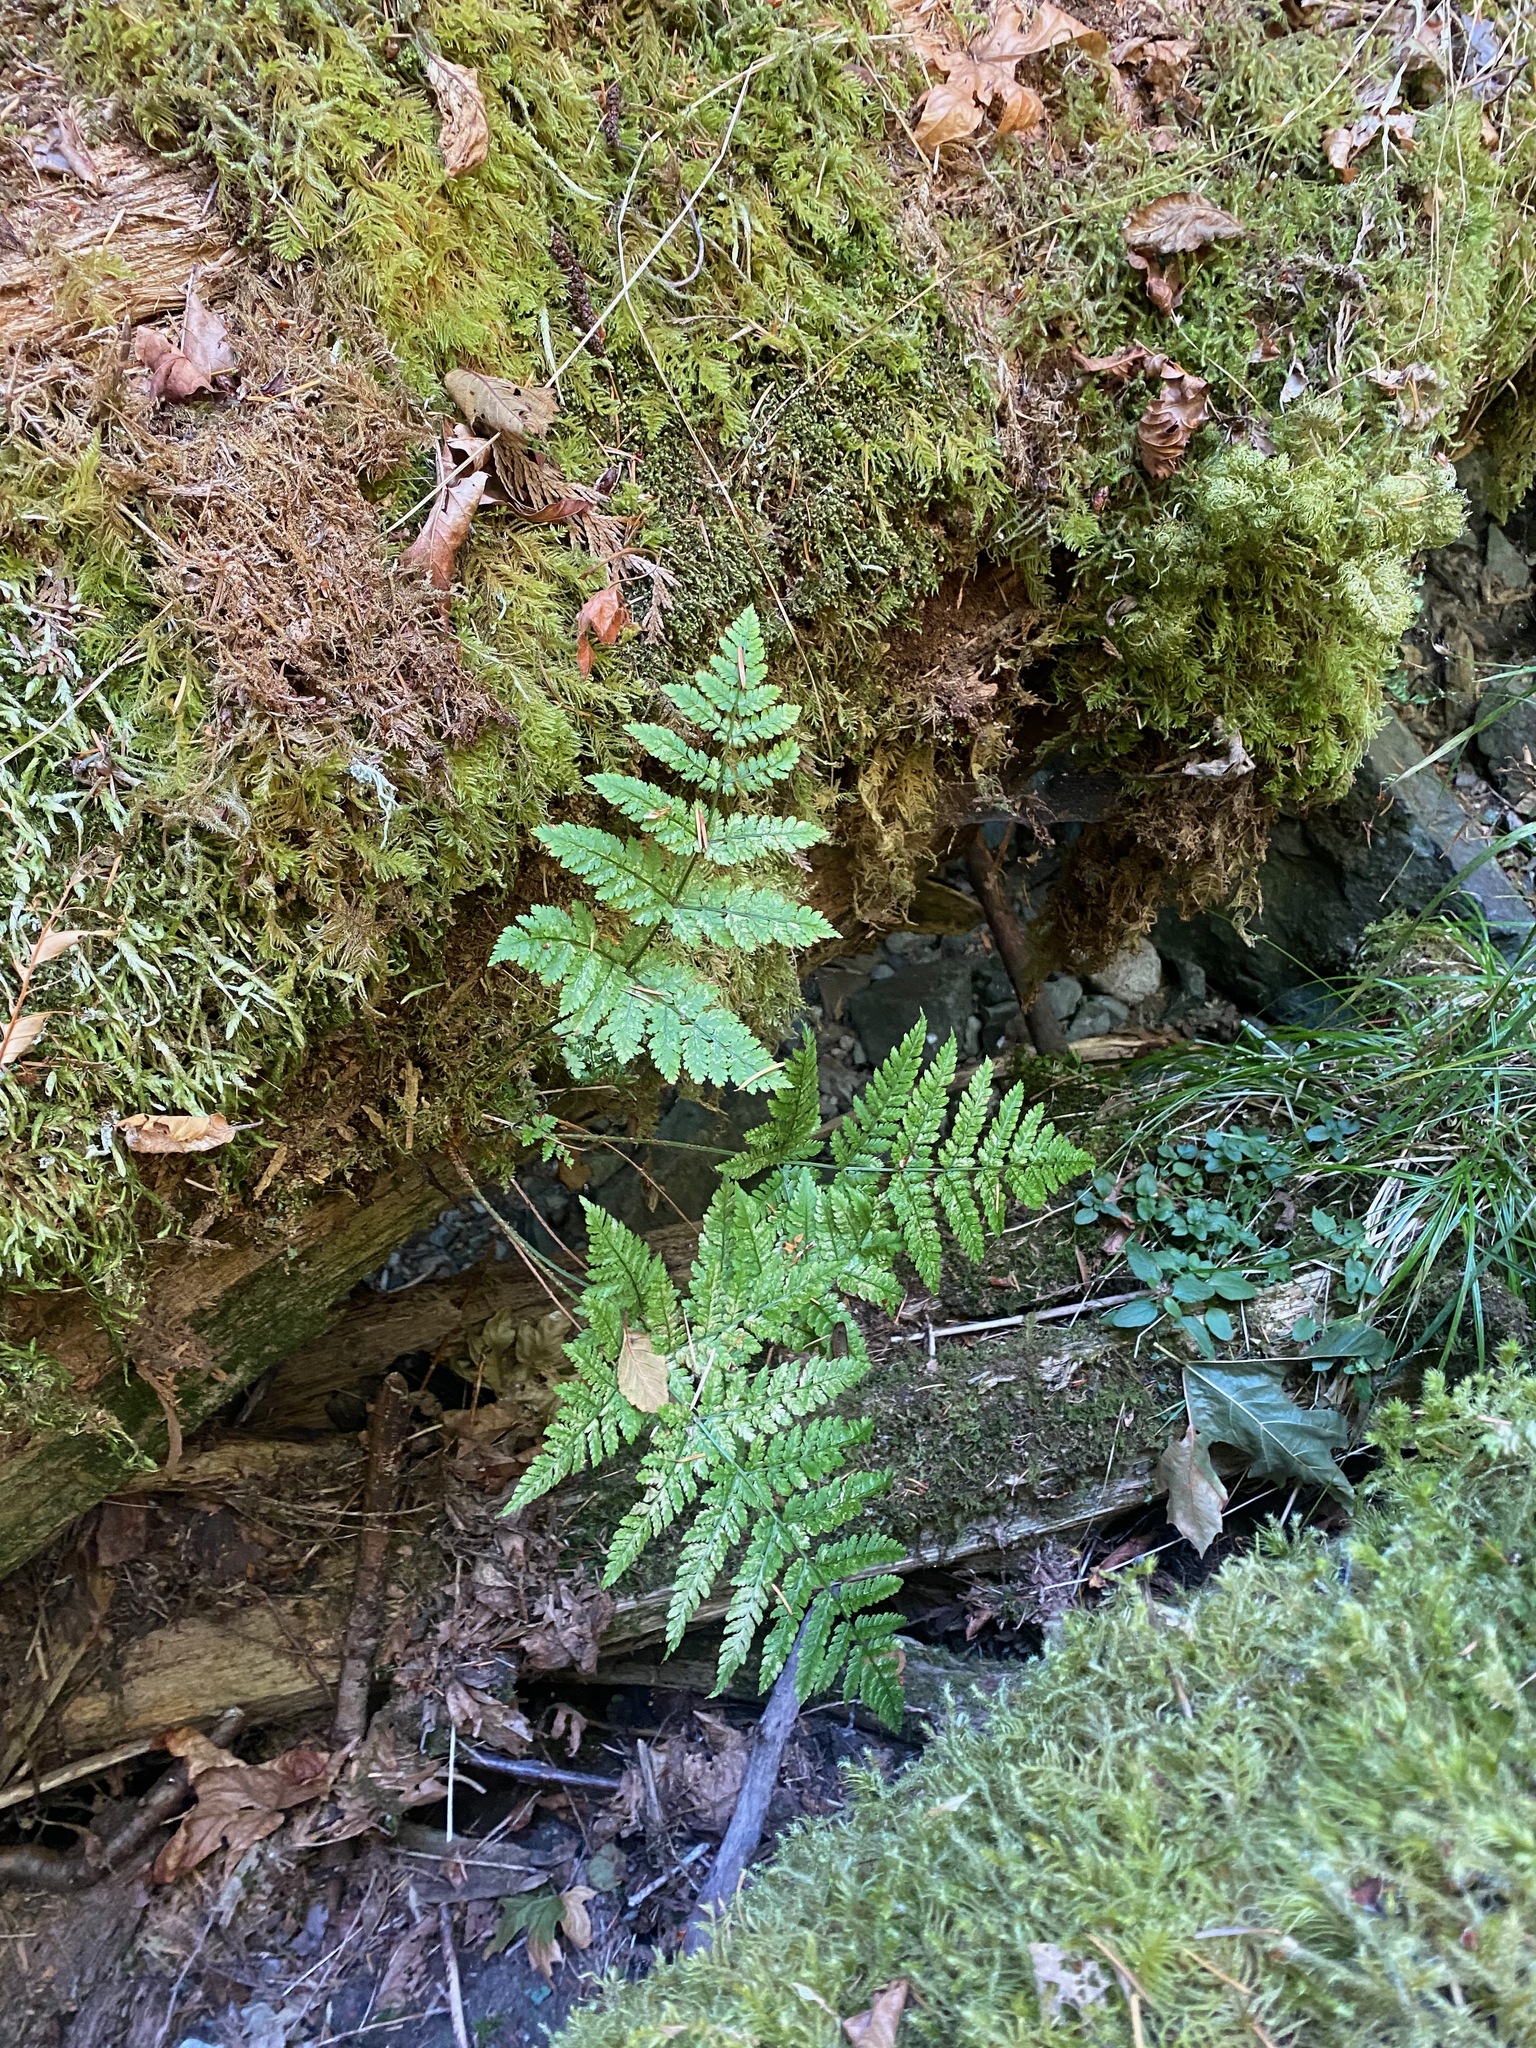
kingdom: Plantae
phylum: Tracheophyta
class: Polypodiopsida
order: Polypodiales
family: Dryopteridaceae
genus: Dryopteris
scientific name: Dryopteris expansa
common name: Northern buckler fern
